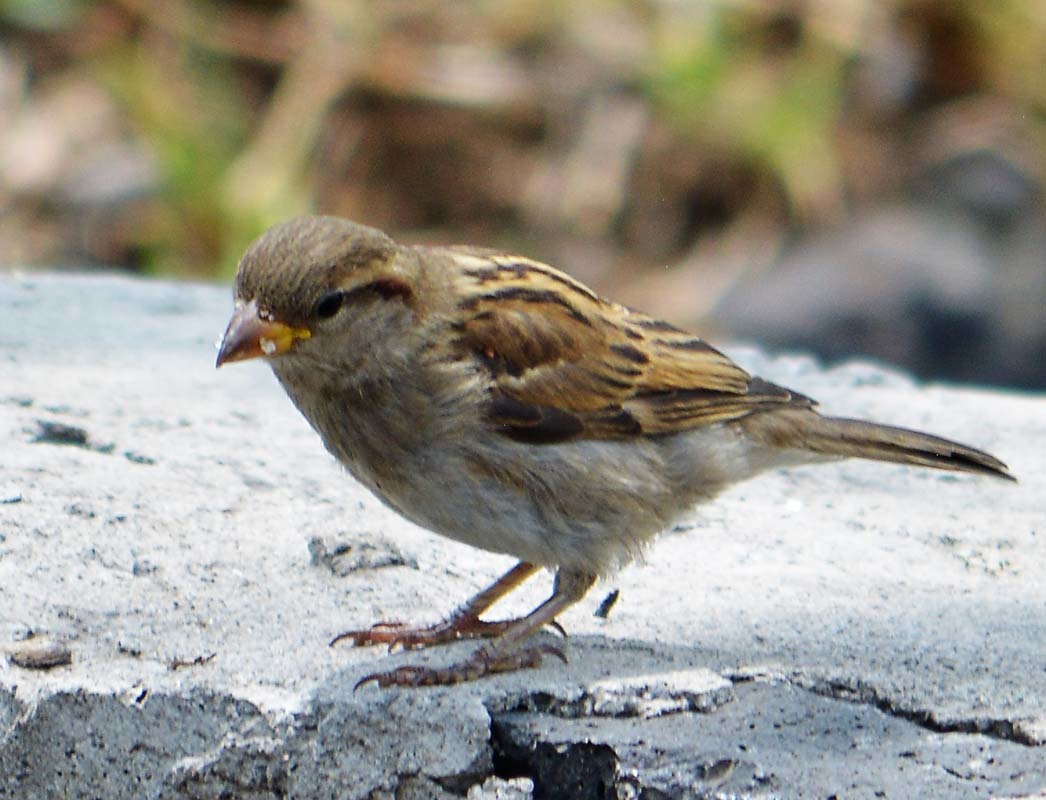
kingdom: Animalia
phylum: Chordata
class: Aves
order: Passeriformes
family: Passeridae
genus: Passer
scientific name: Passer domesticus
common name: House sparrow
